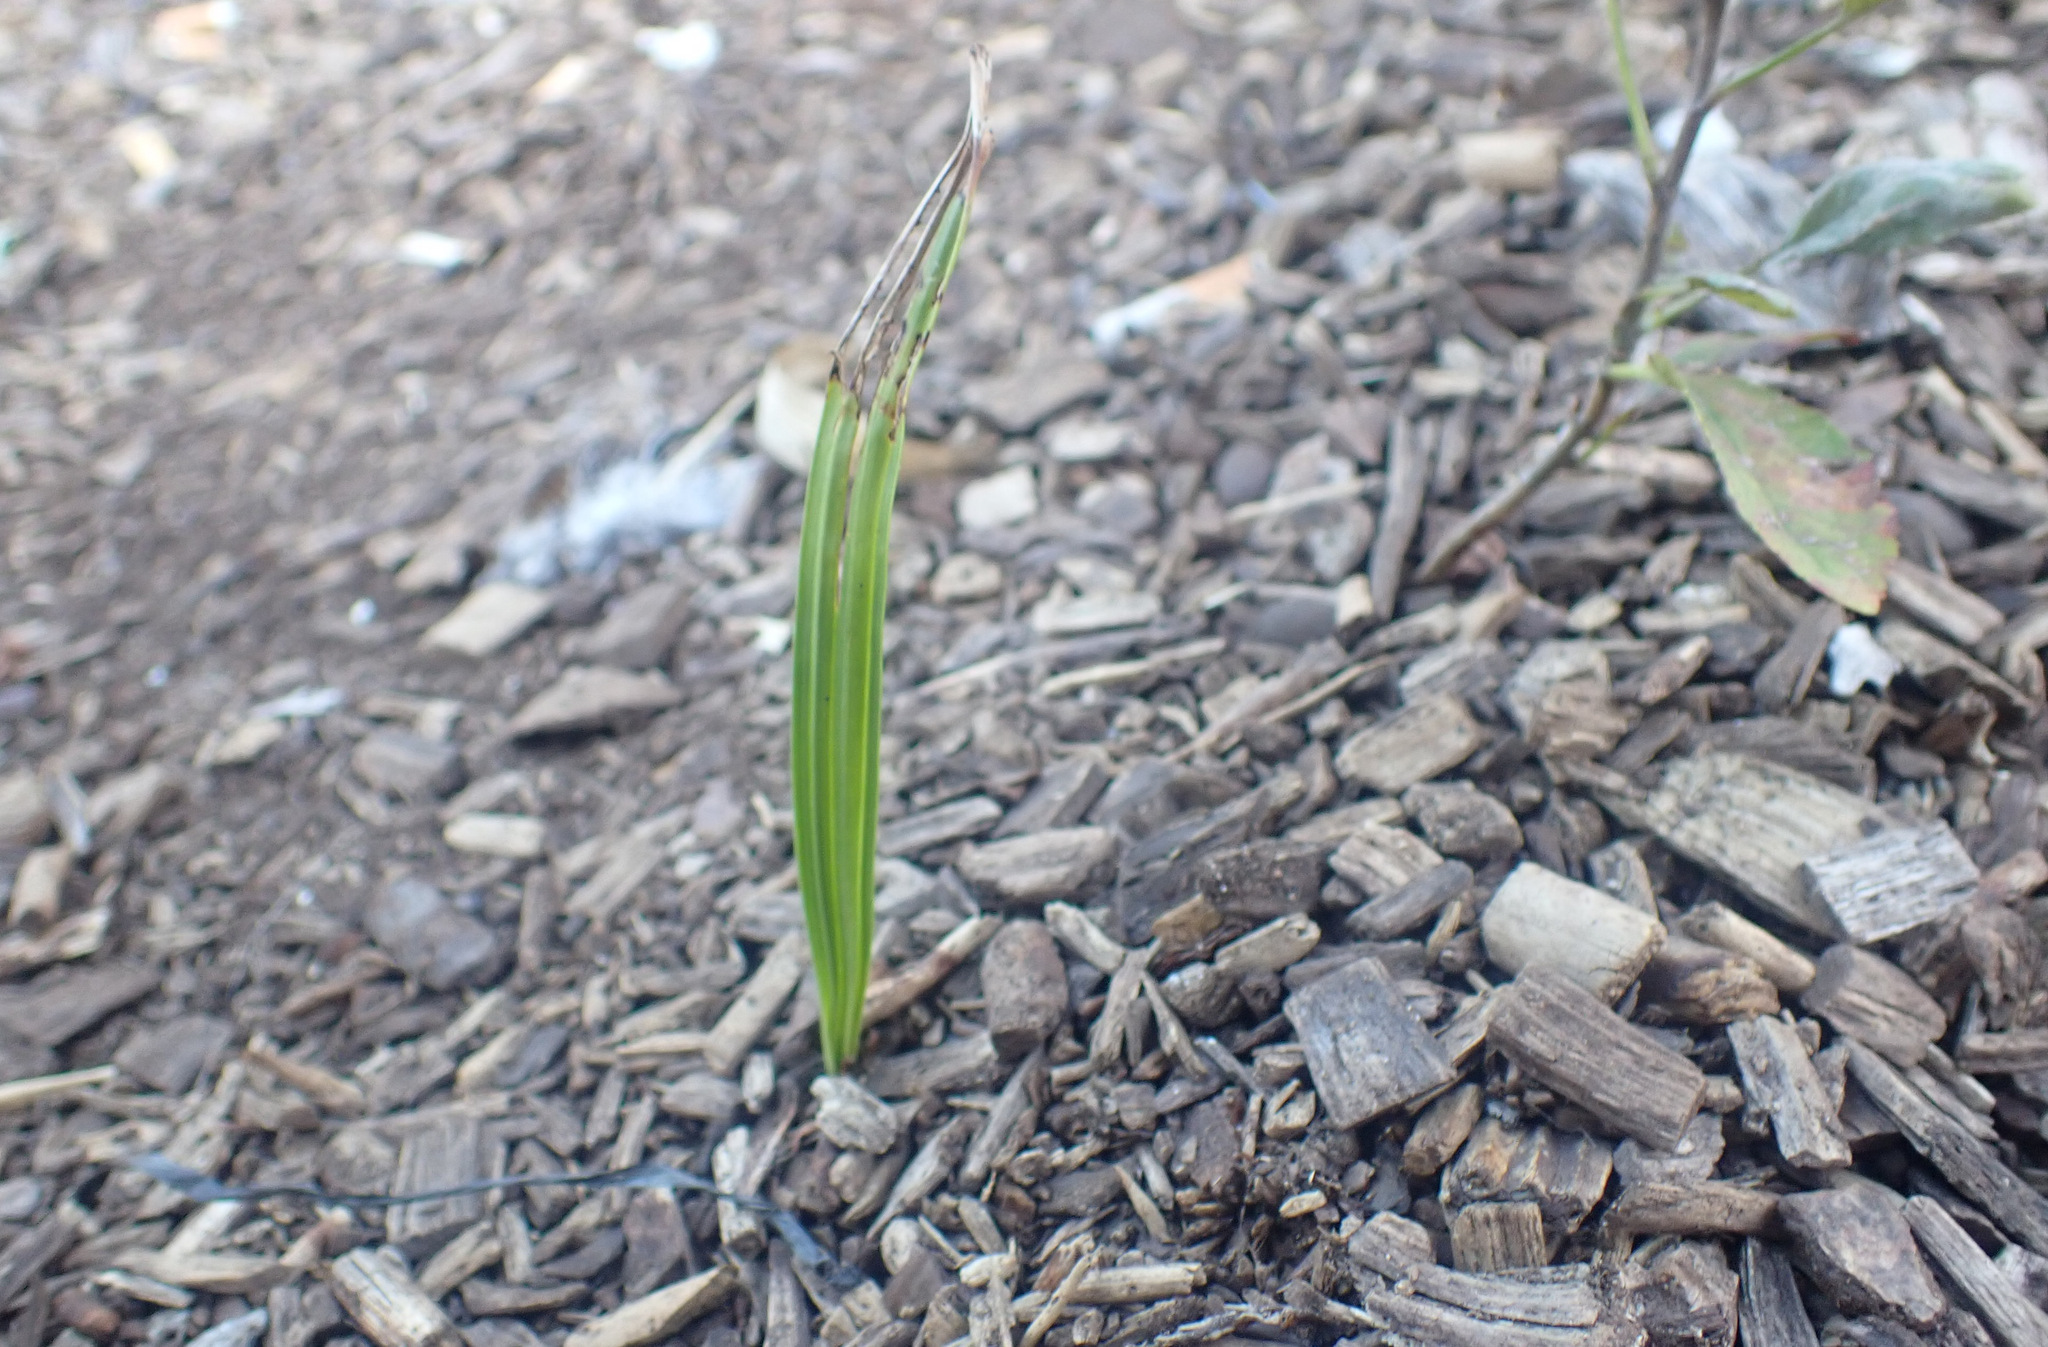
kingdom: Plantae
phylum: Tracheophyta
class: Liliopsida
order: Arecales
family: Arecaceae
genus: Phoenix
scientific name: Phoenix dactylifera
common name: Date palm
